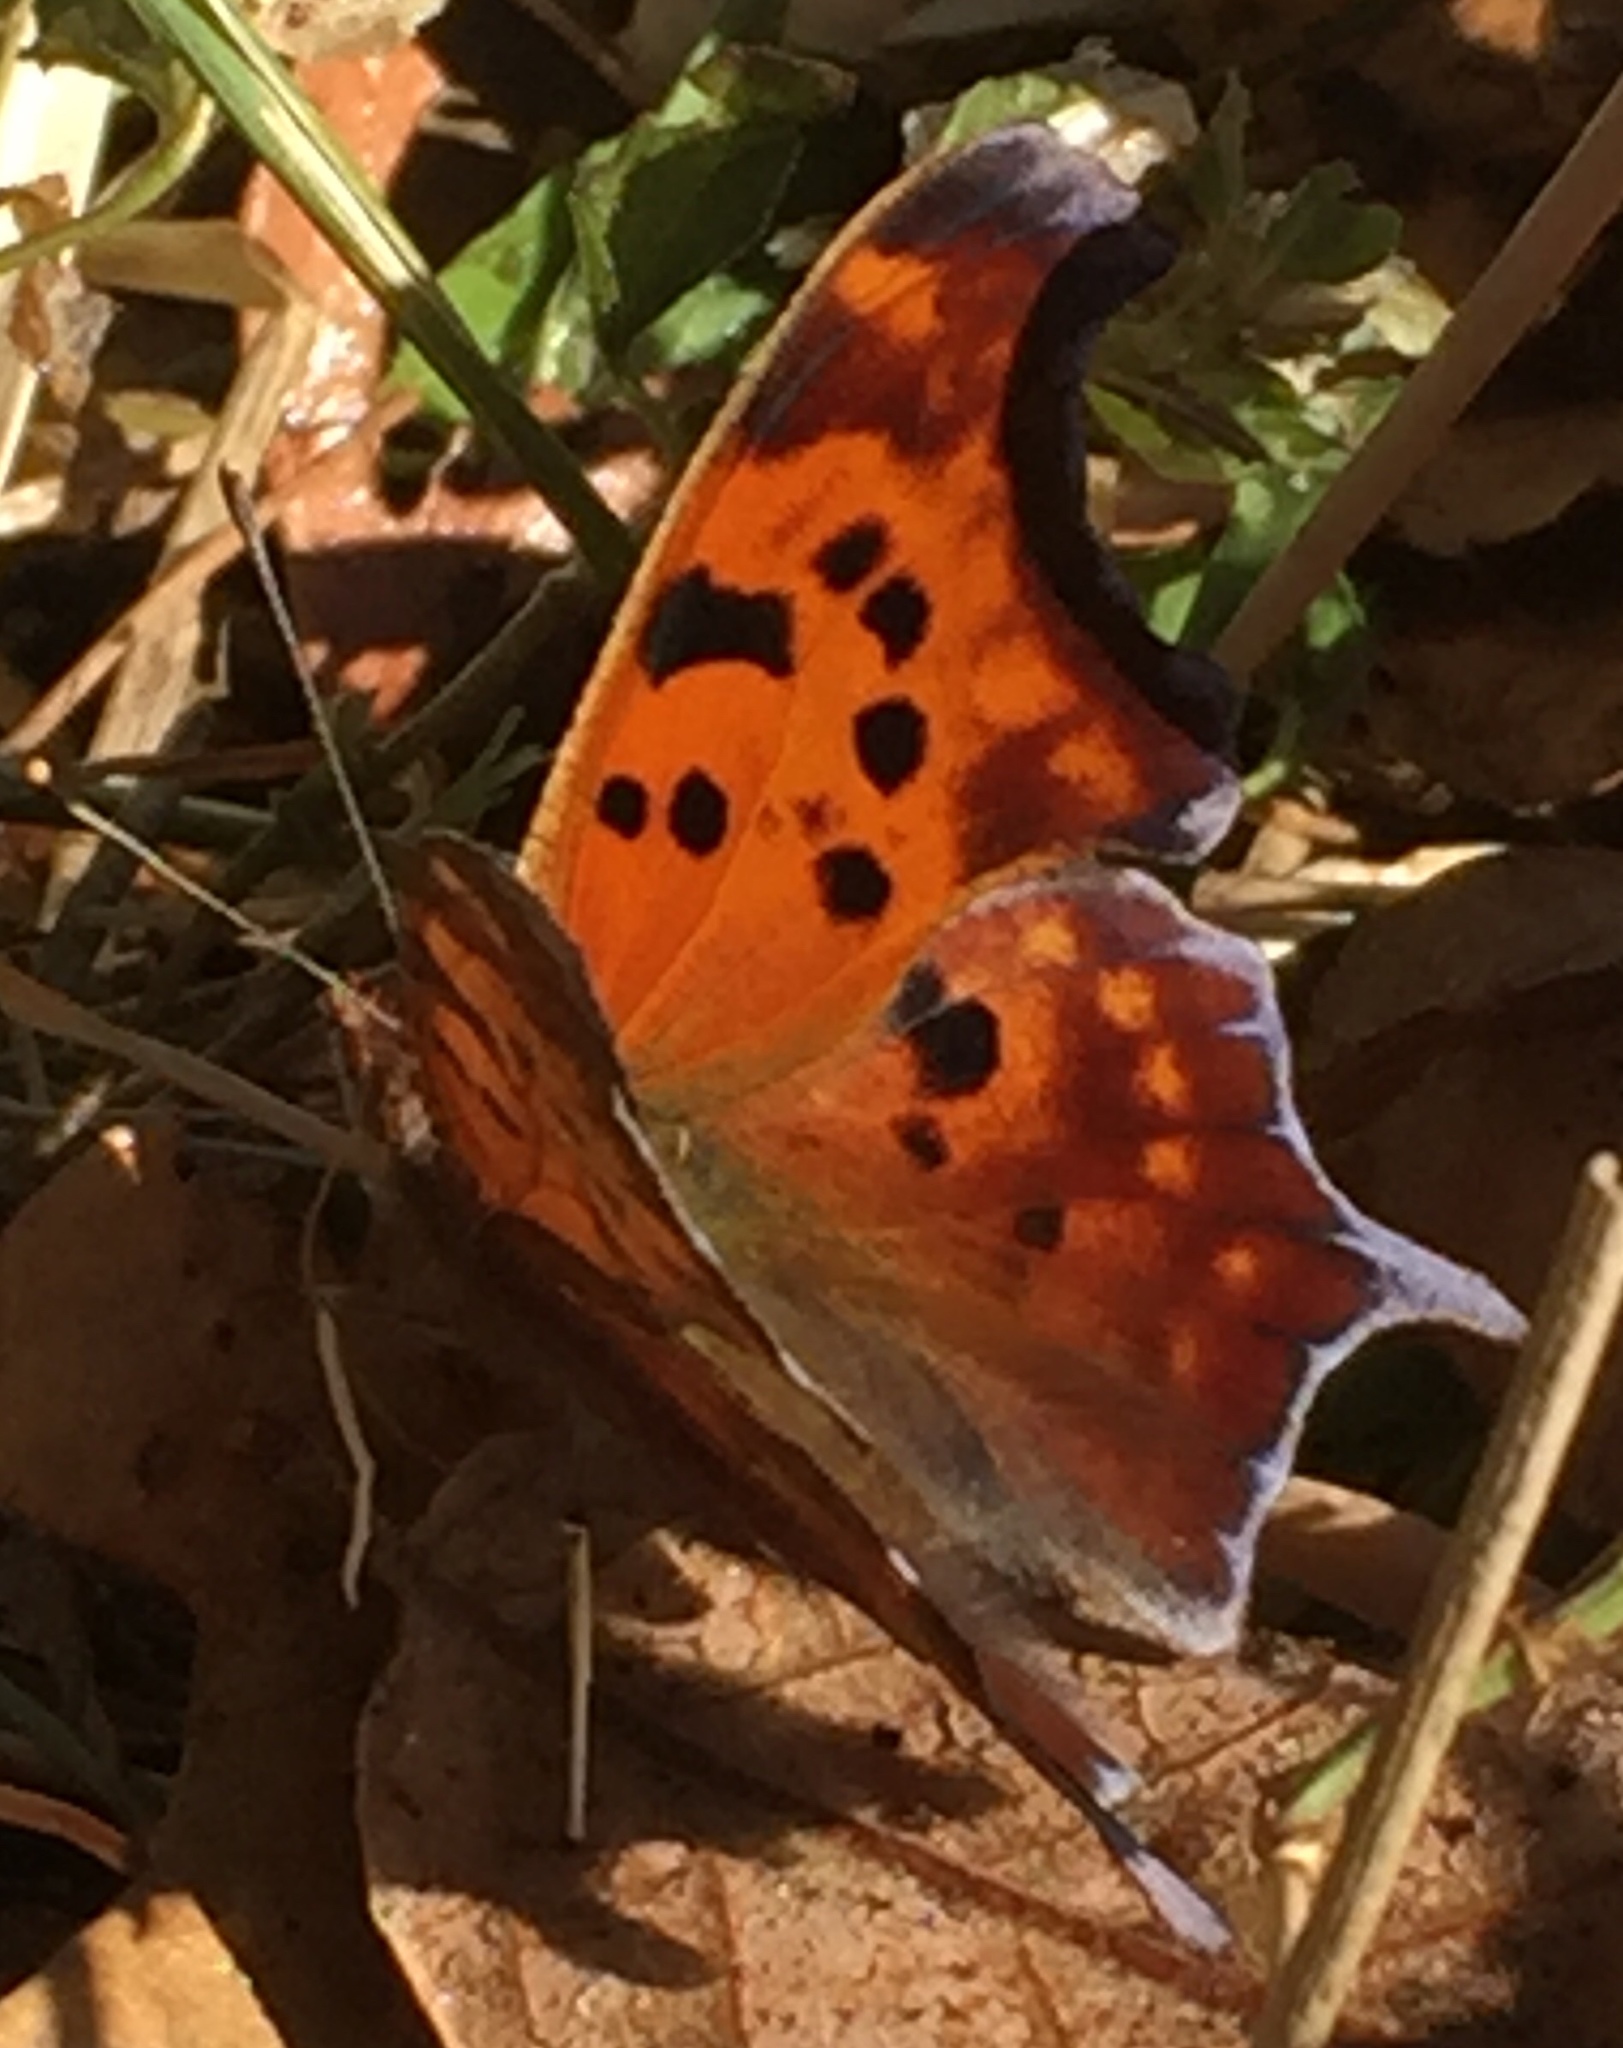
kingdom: Animalia
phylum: Arthropoda
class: Insecta
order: Lepidoptera
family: Nymphalidae
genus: Polygonia
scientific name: Polygonia interrogationis
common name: Question mark
